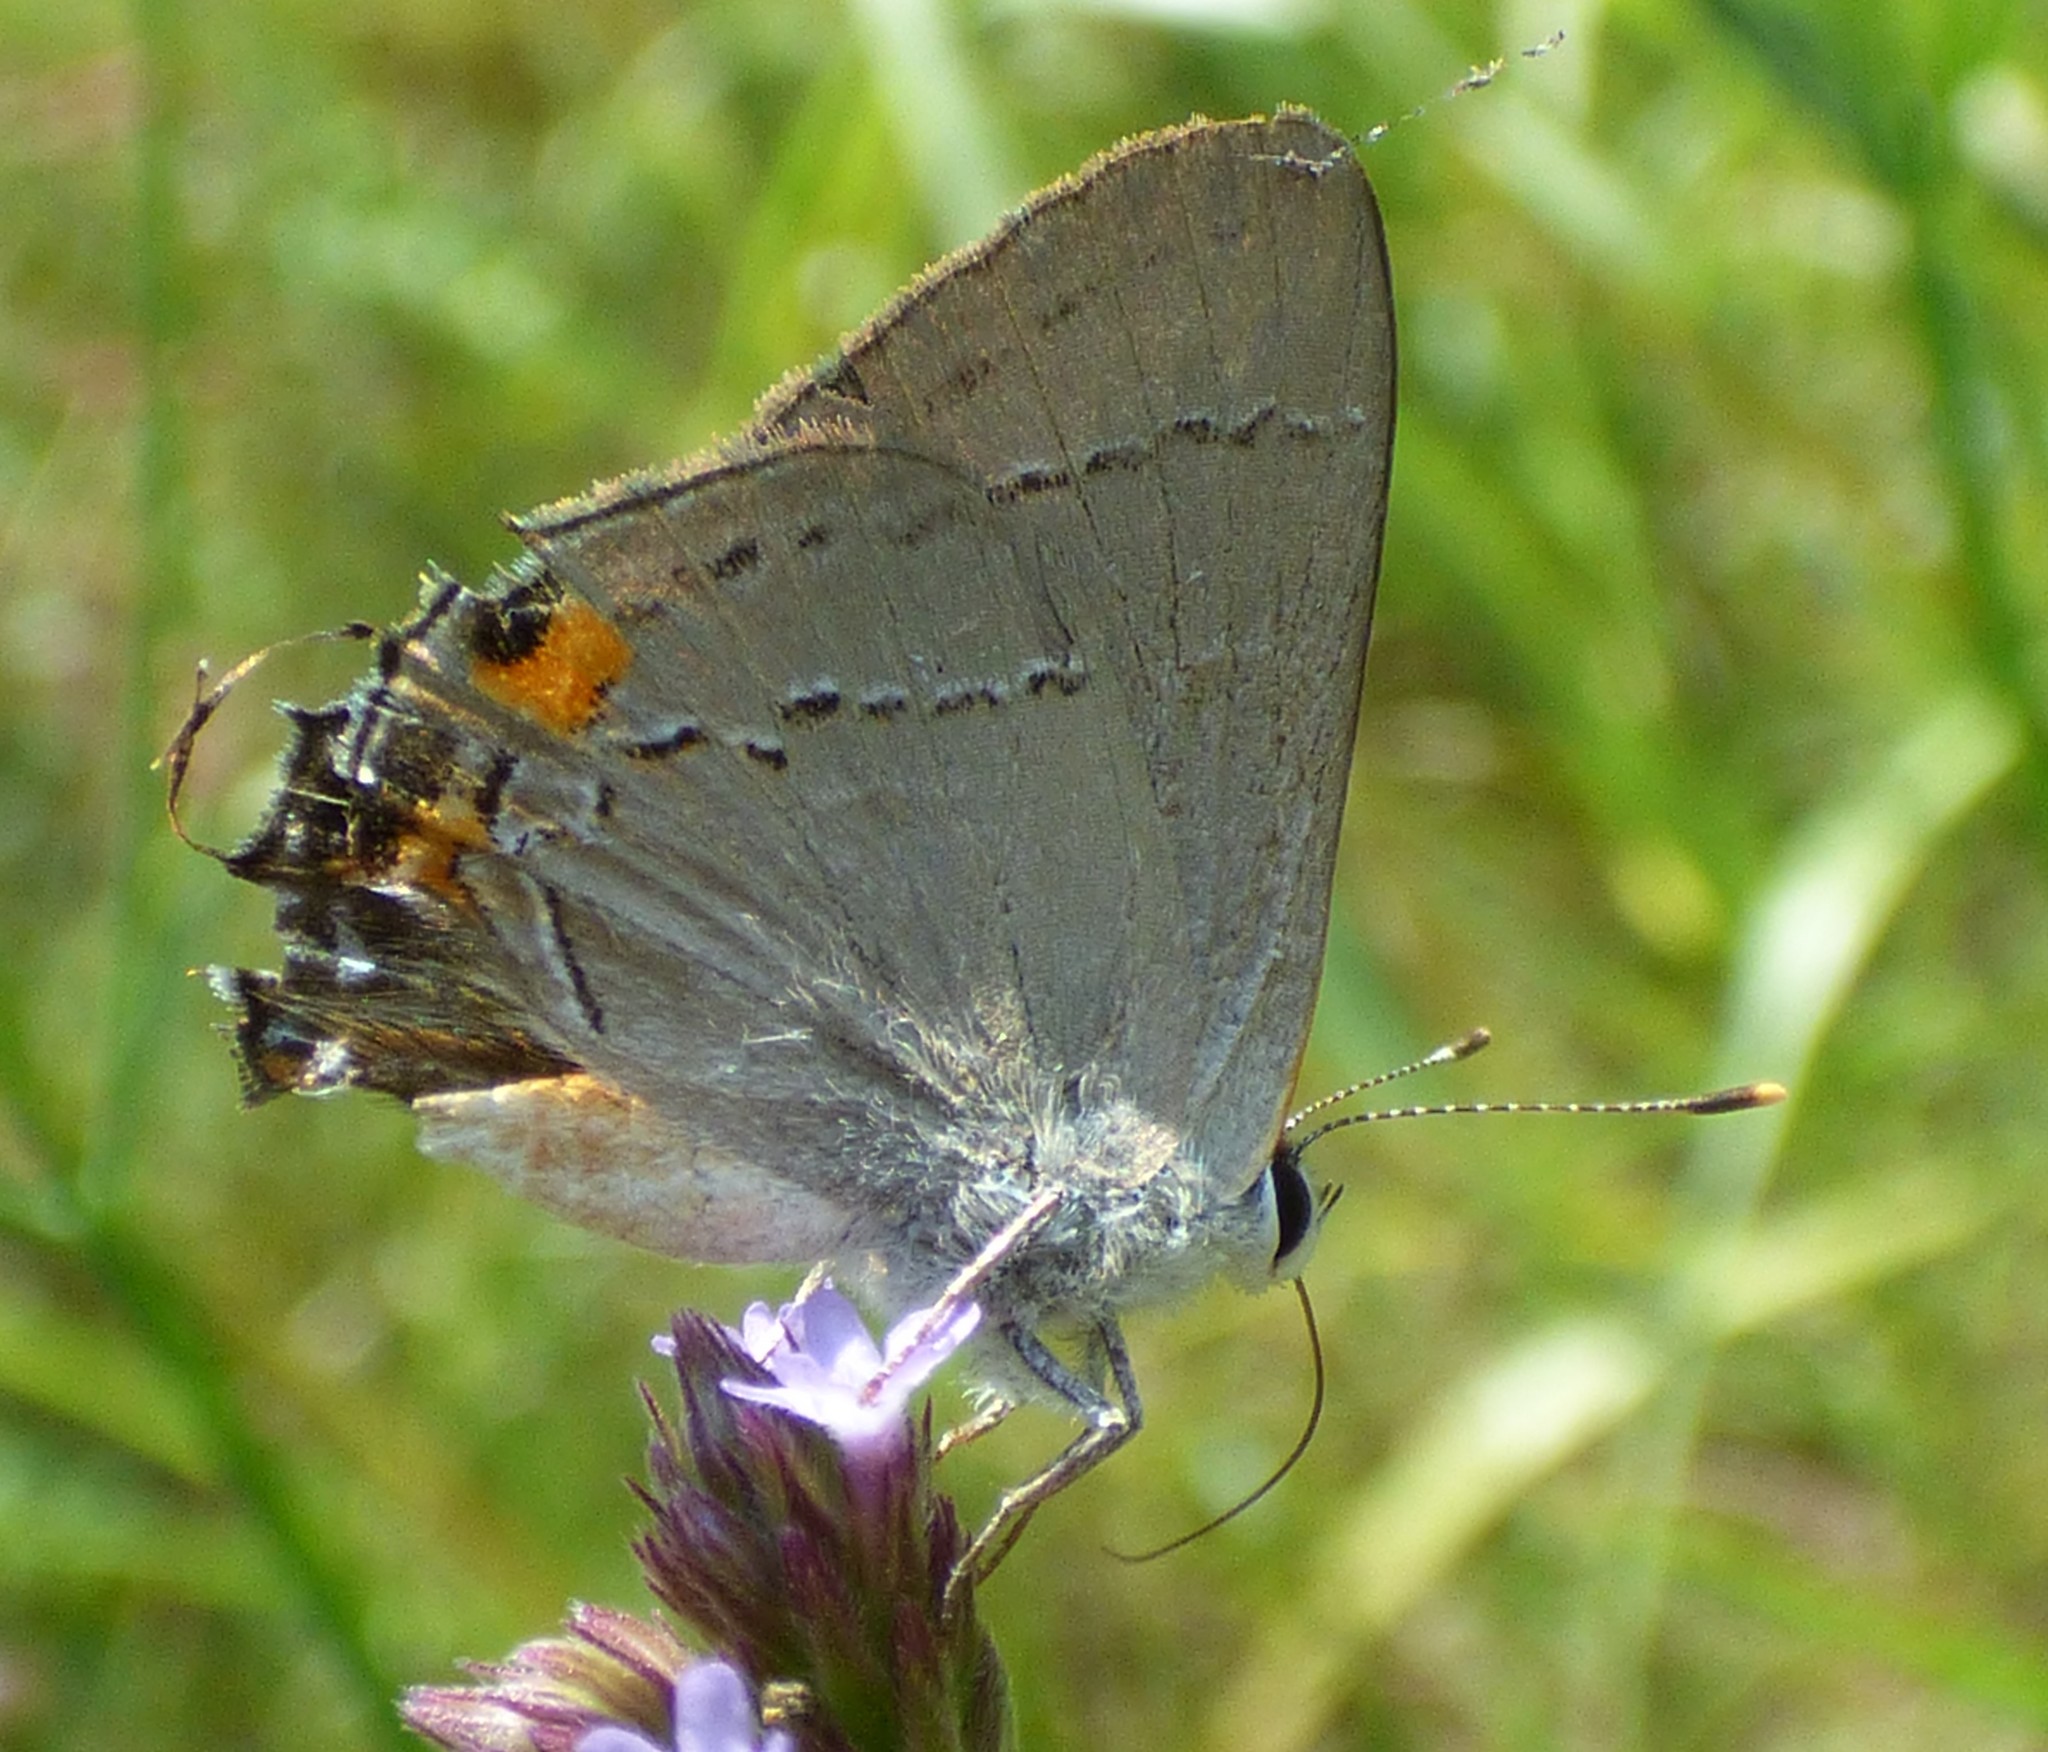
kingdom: Animalia
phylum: Arthropoda
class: Insecta
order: Lepidoptera
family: Lycaenidae
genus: Strymon
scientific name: Strymon melinus
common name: Gray hairstreak
